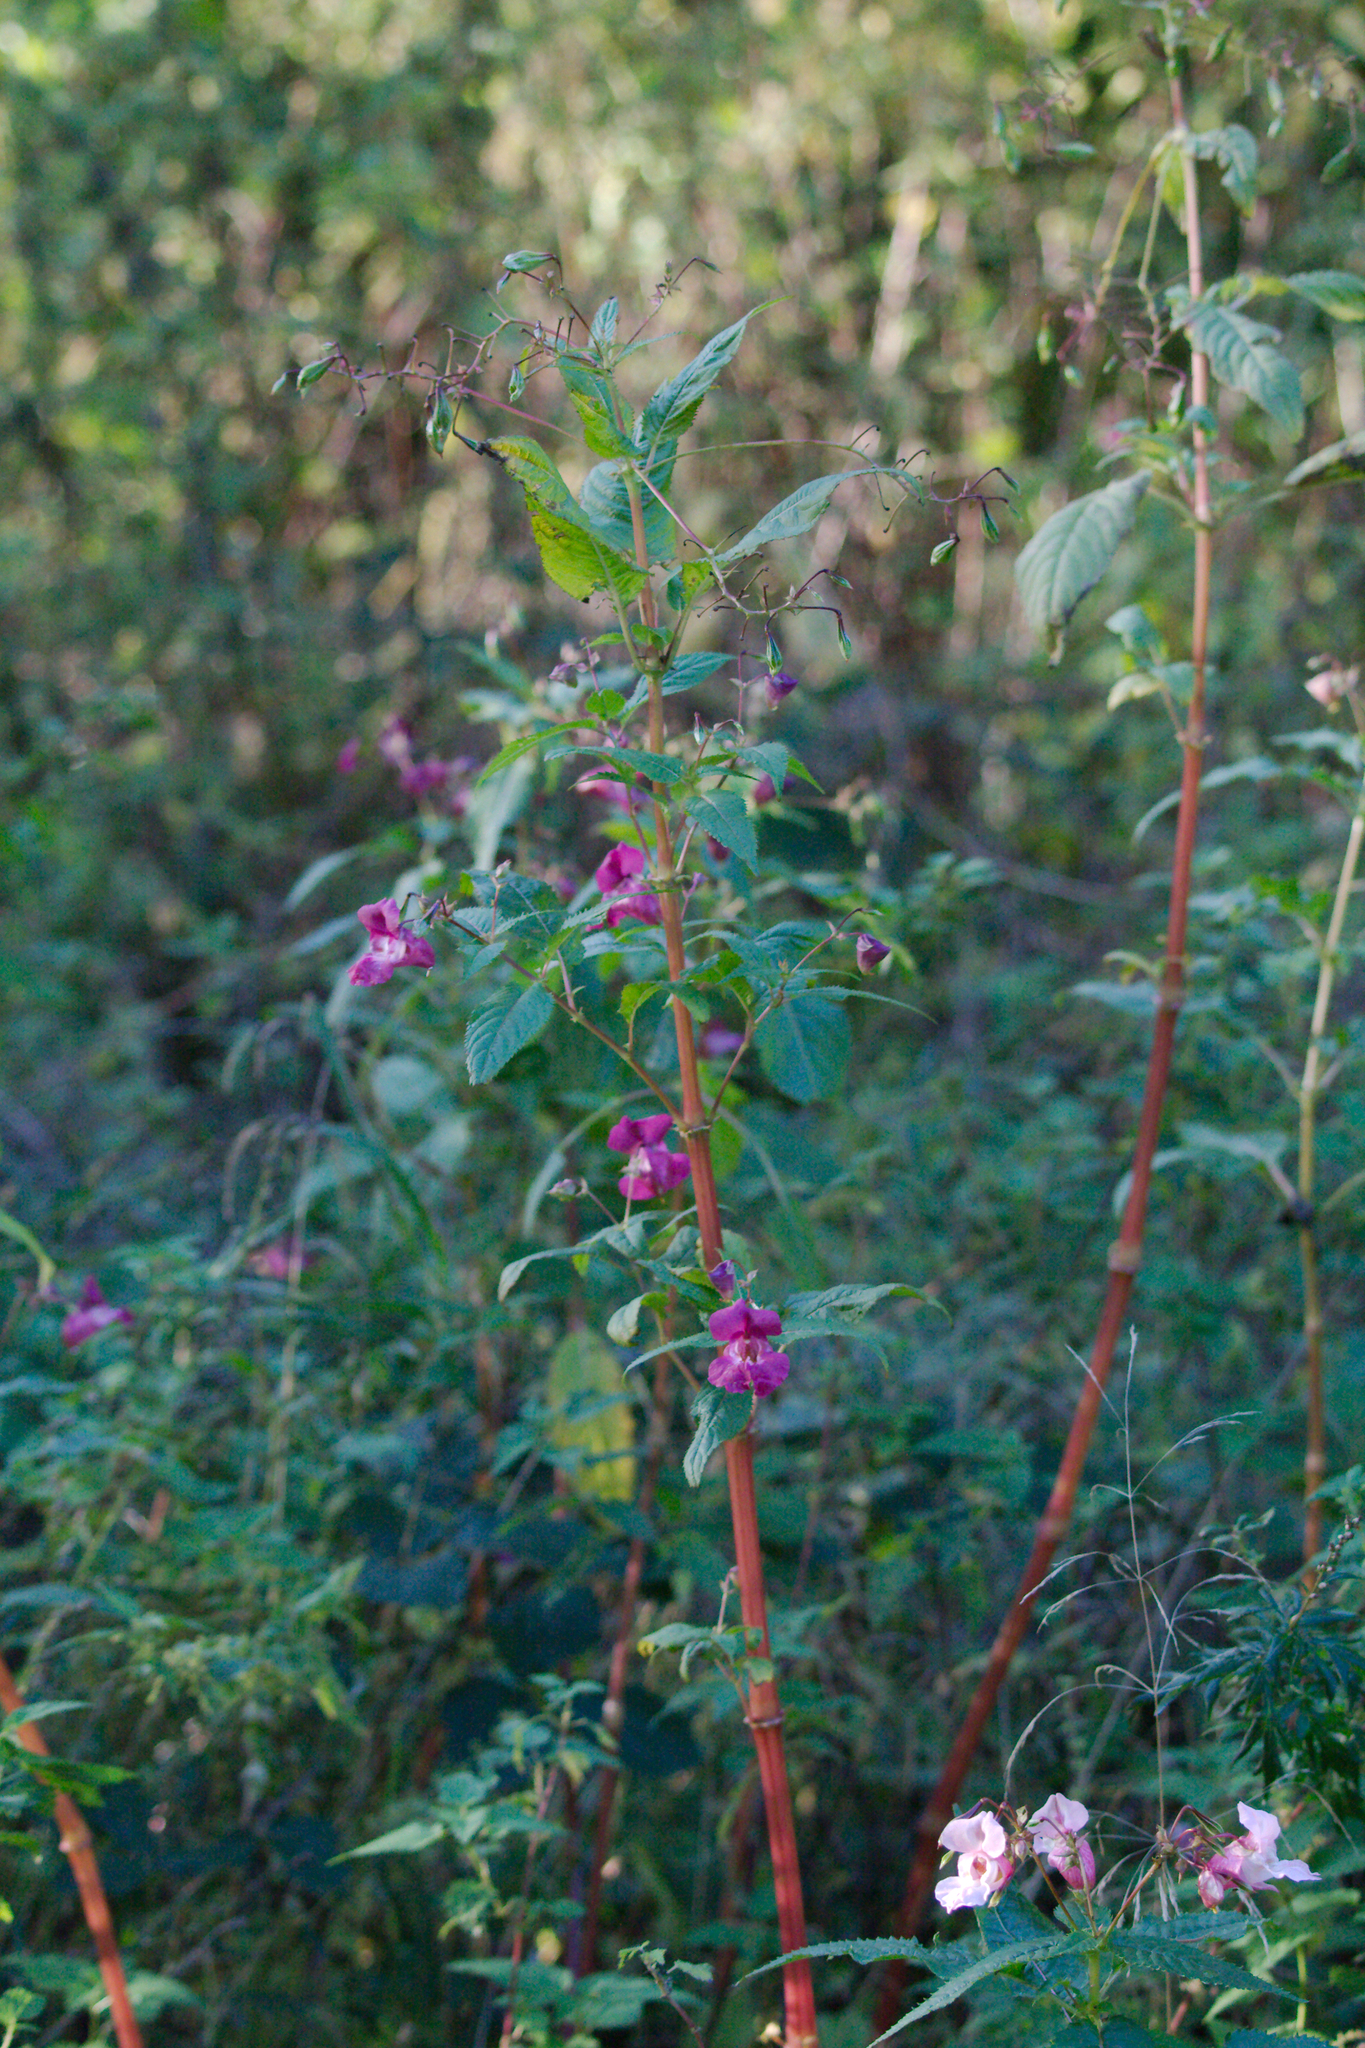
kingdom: Plantae
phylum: Tracheophyta
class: Magnoliopsida
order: Ericales
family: Balsaminaceae
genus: Impatiens
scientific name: Impatiens glandulifera
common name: Himalayan balsam
